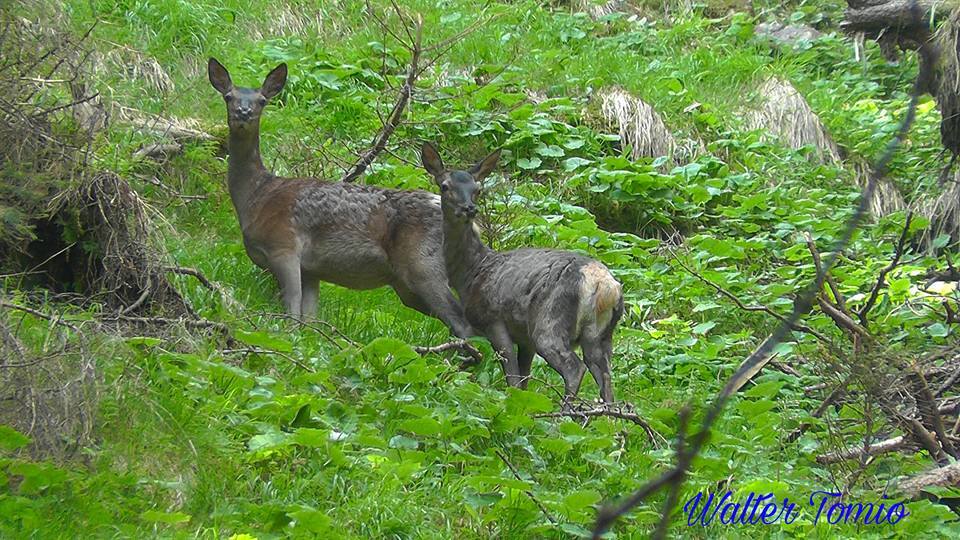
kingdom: Animalia
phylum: Chordata
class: Mammalia
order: Artiodactyla
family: Cervidae
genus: Cervus
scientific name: Cervus elaphus
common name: Red deer
